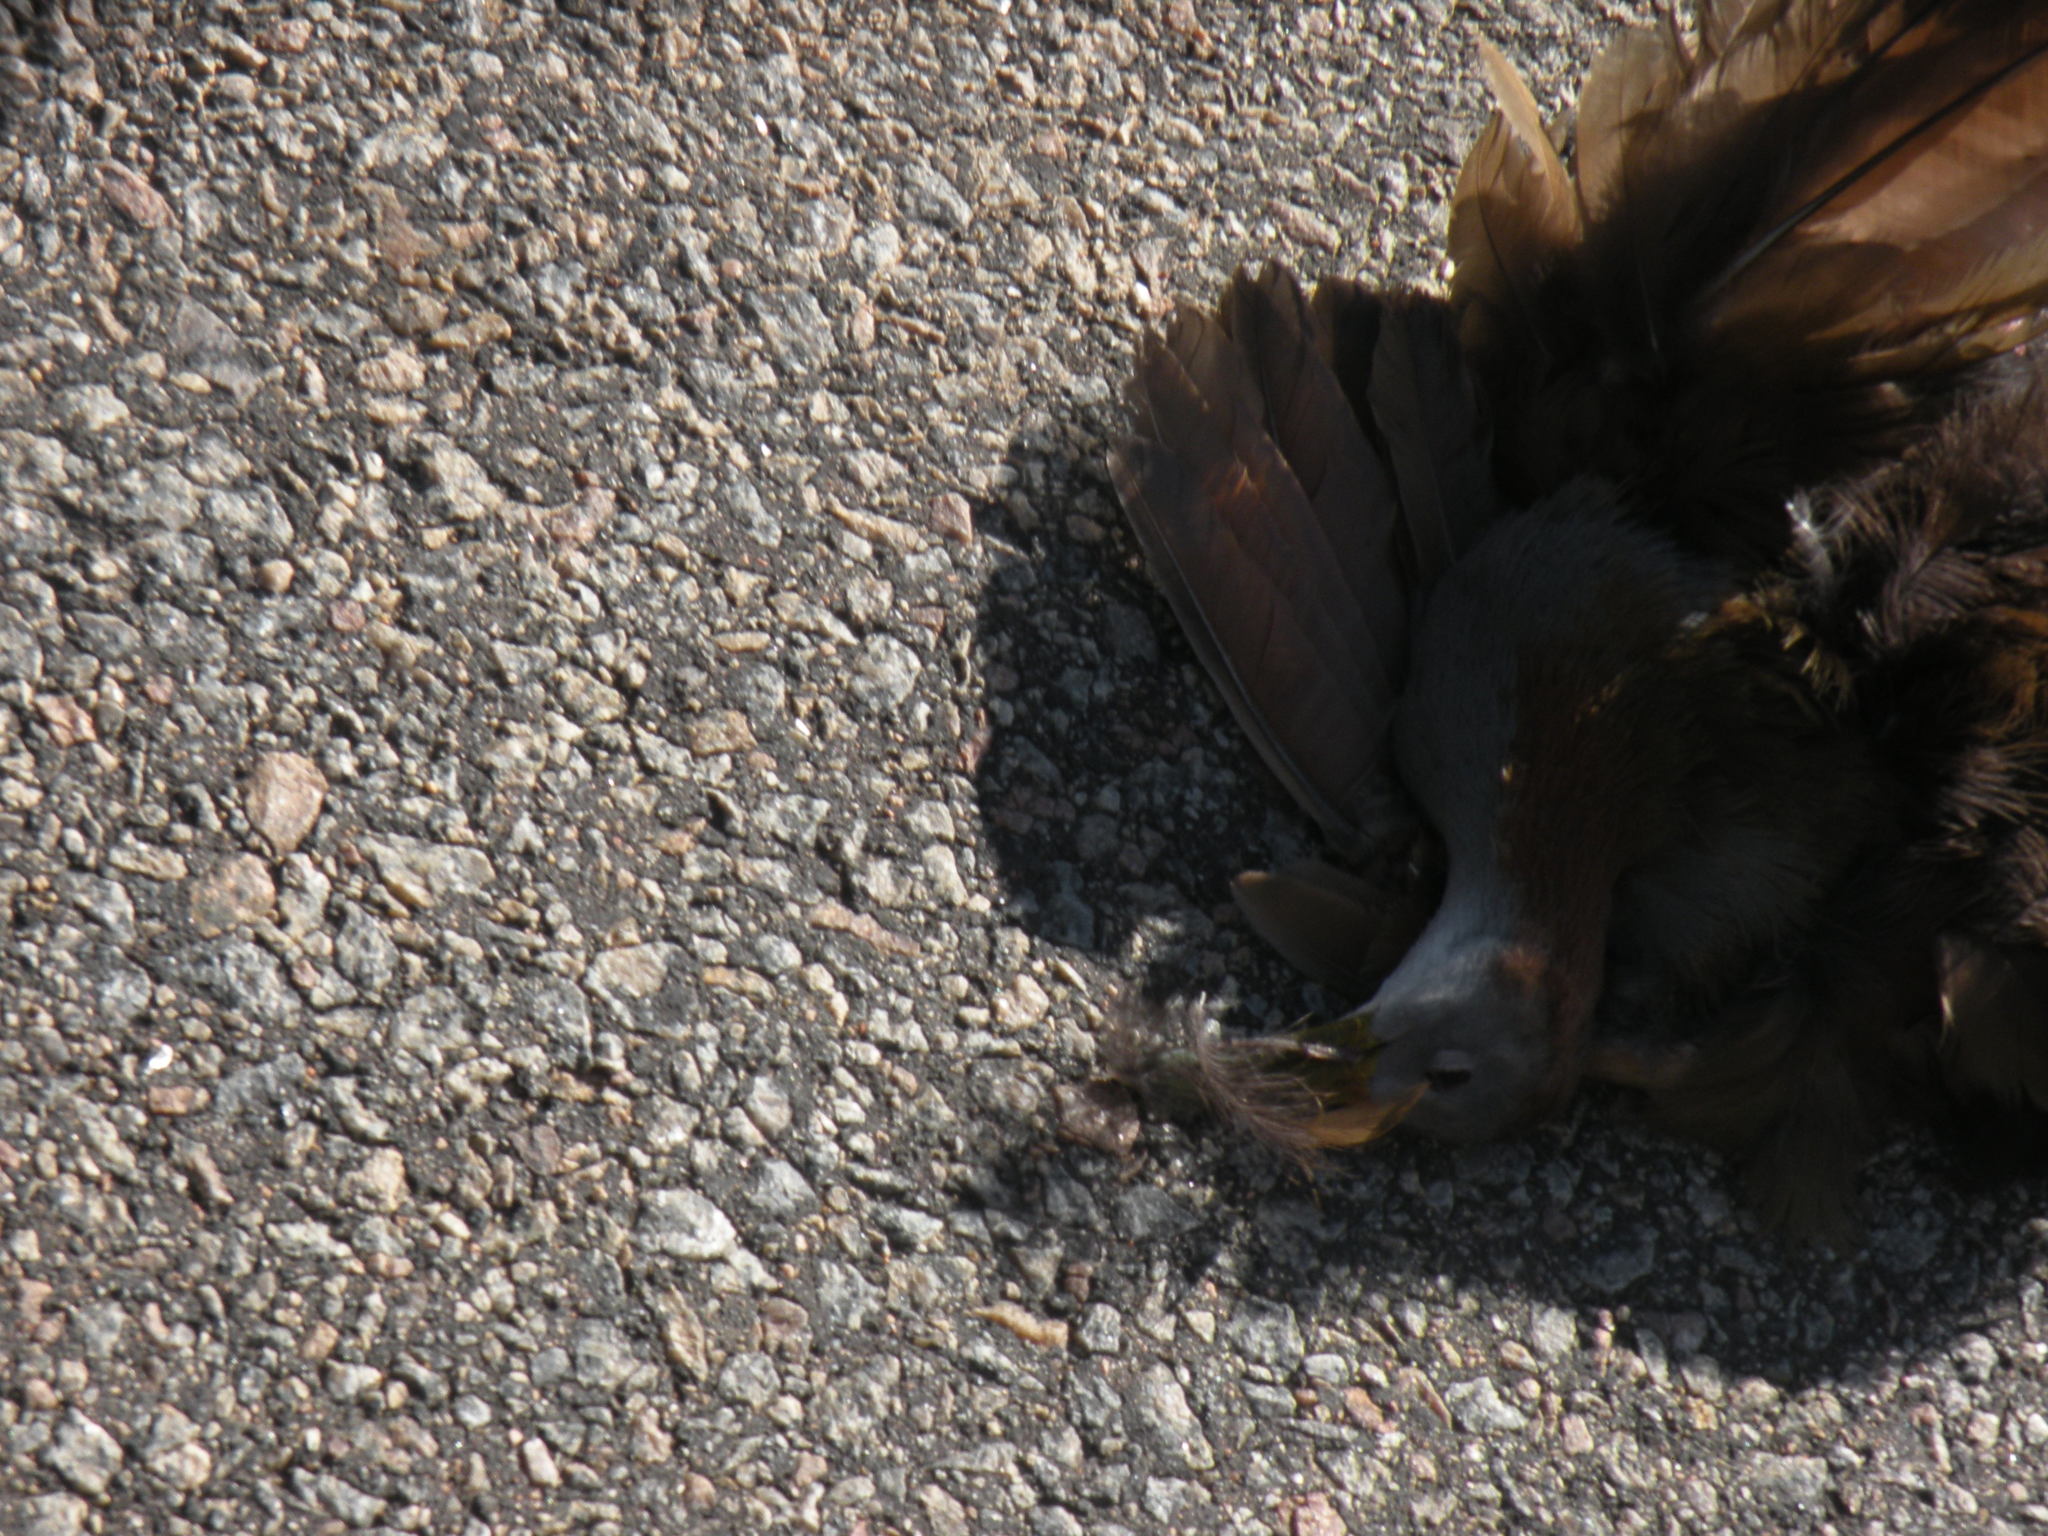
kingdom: Animalia
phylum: Chordata
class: Aves
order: Gruiformes
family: Rallidae
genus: Aramides
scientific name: Aramides ypecaha
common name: Giant wood rail
